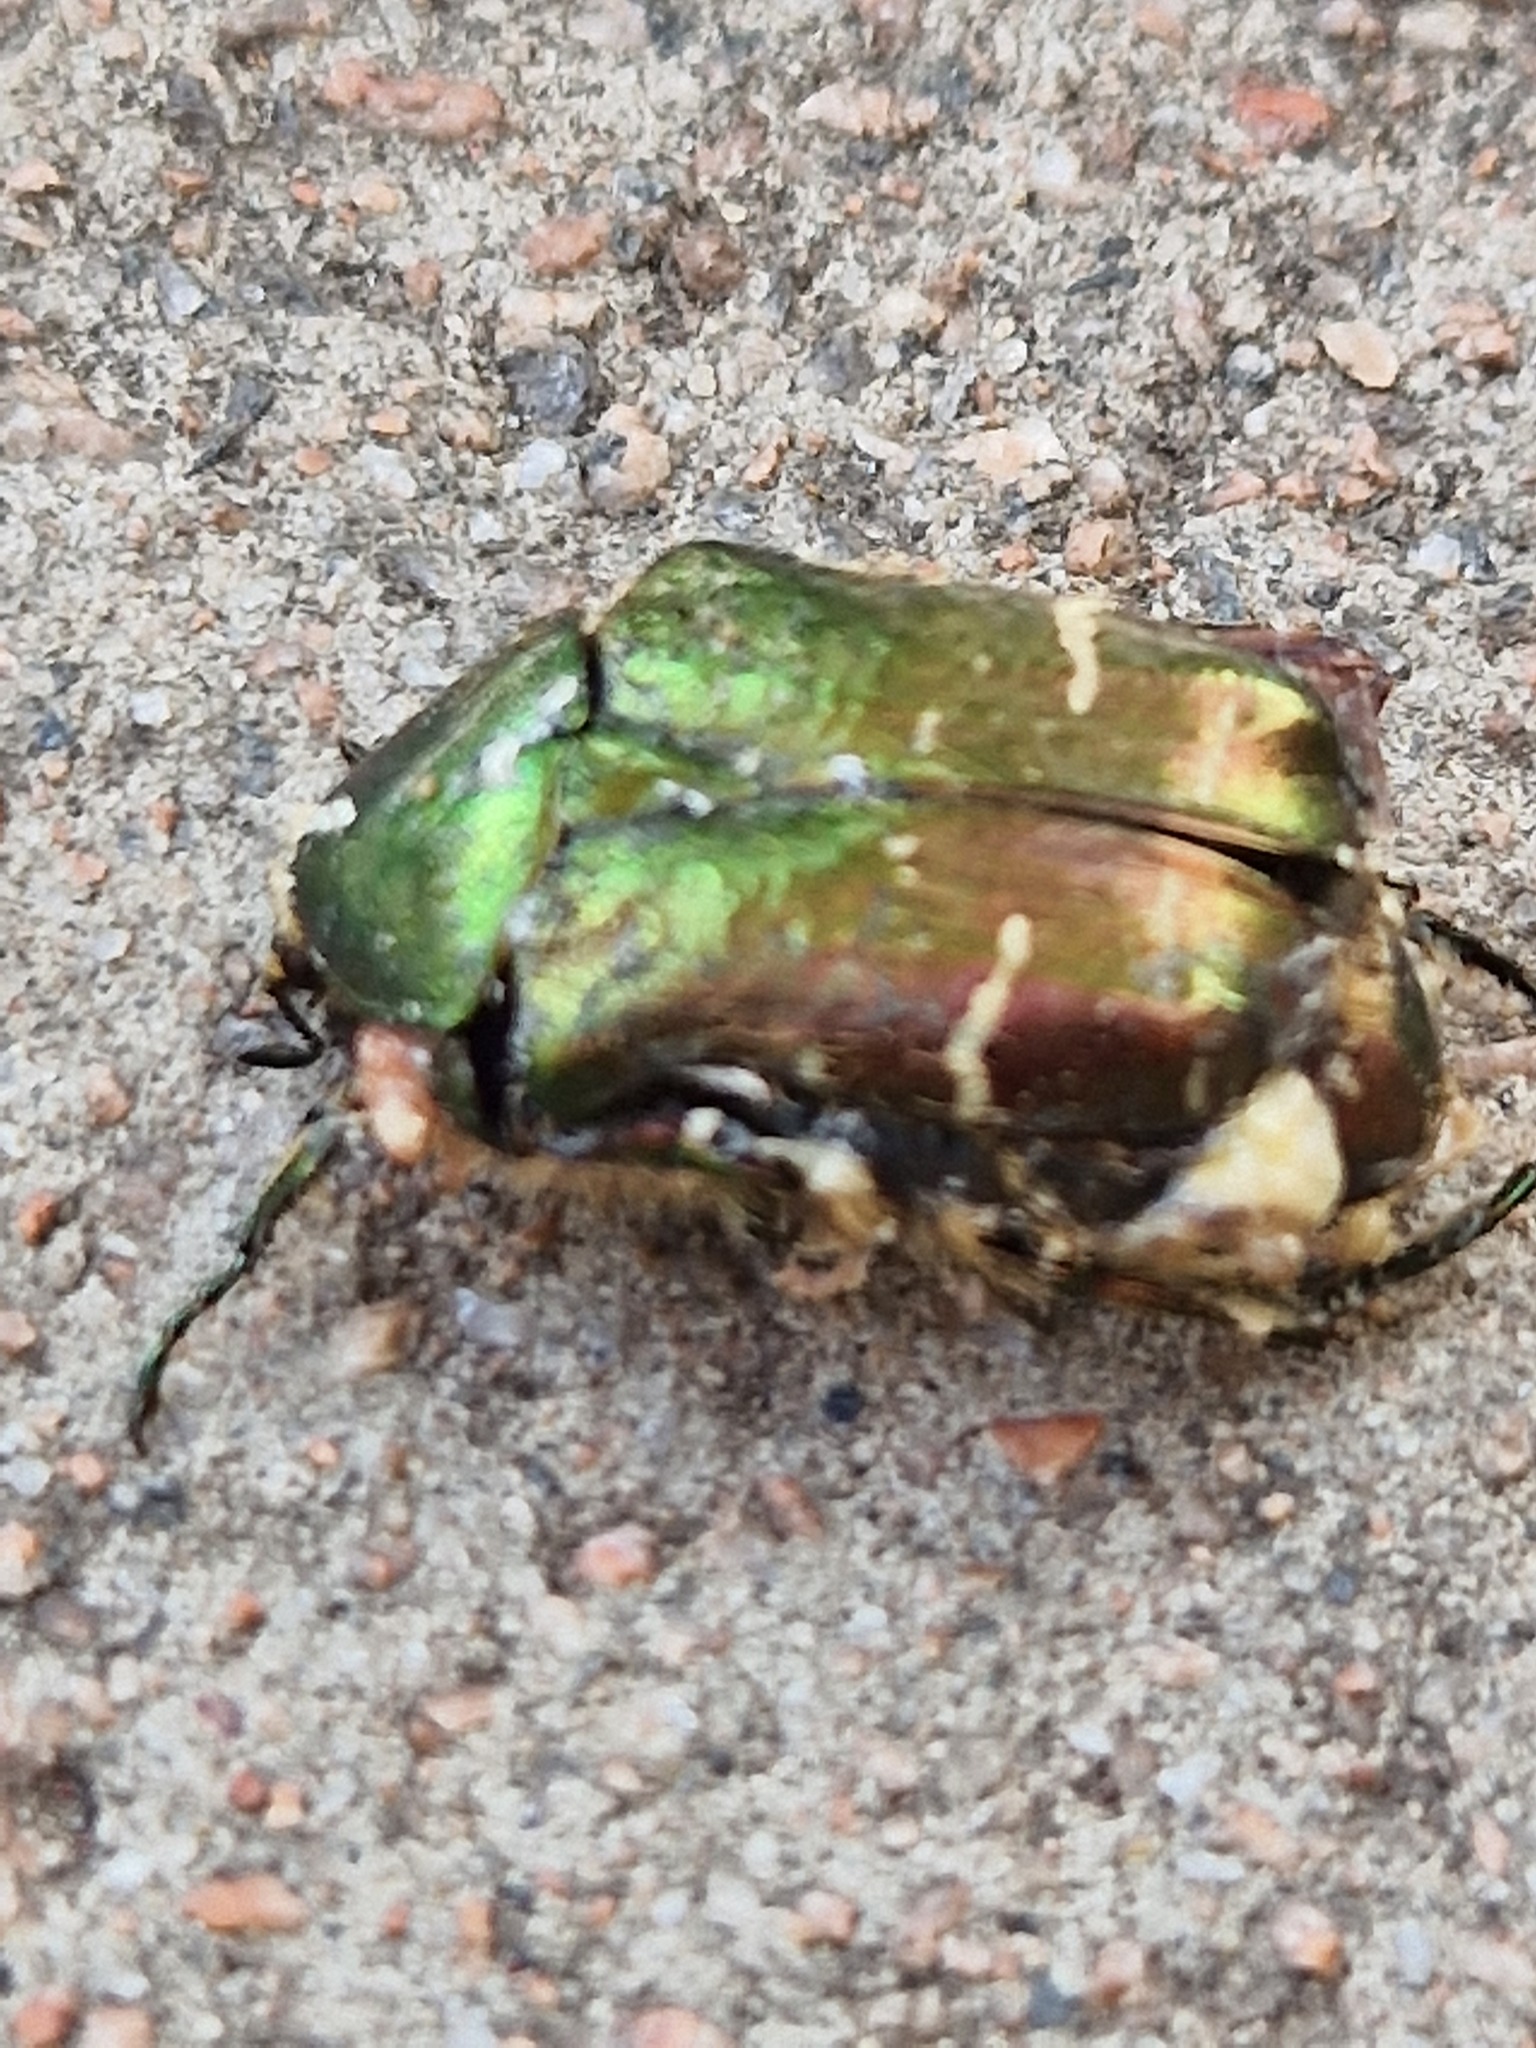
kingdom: Animalia
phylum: Arthropoda
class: Insecta
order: Coleoptera
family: Scarabaeidae
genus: Cetonia
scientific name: Cetonia aurata
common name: Rose chafer
